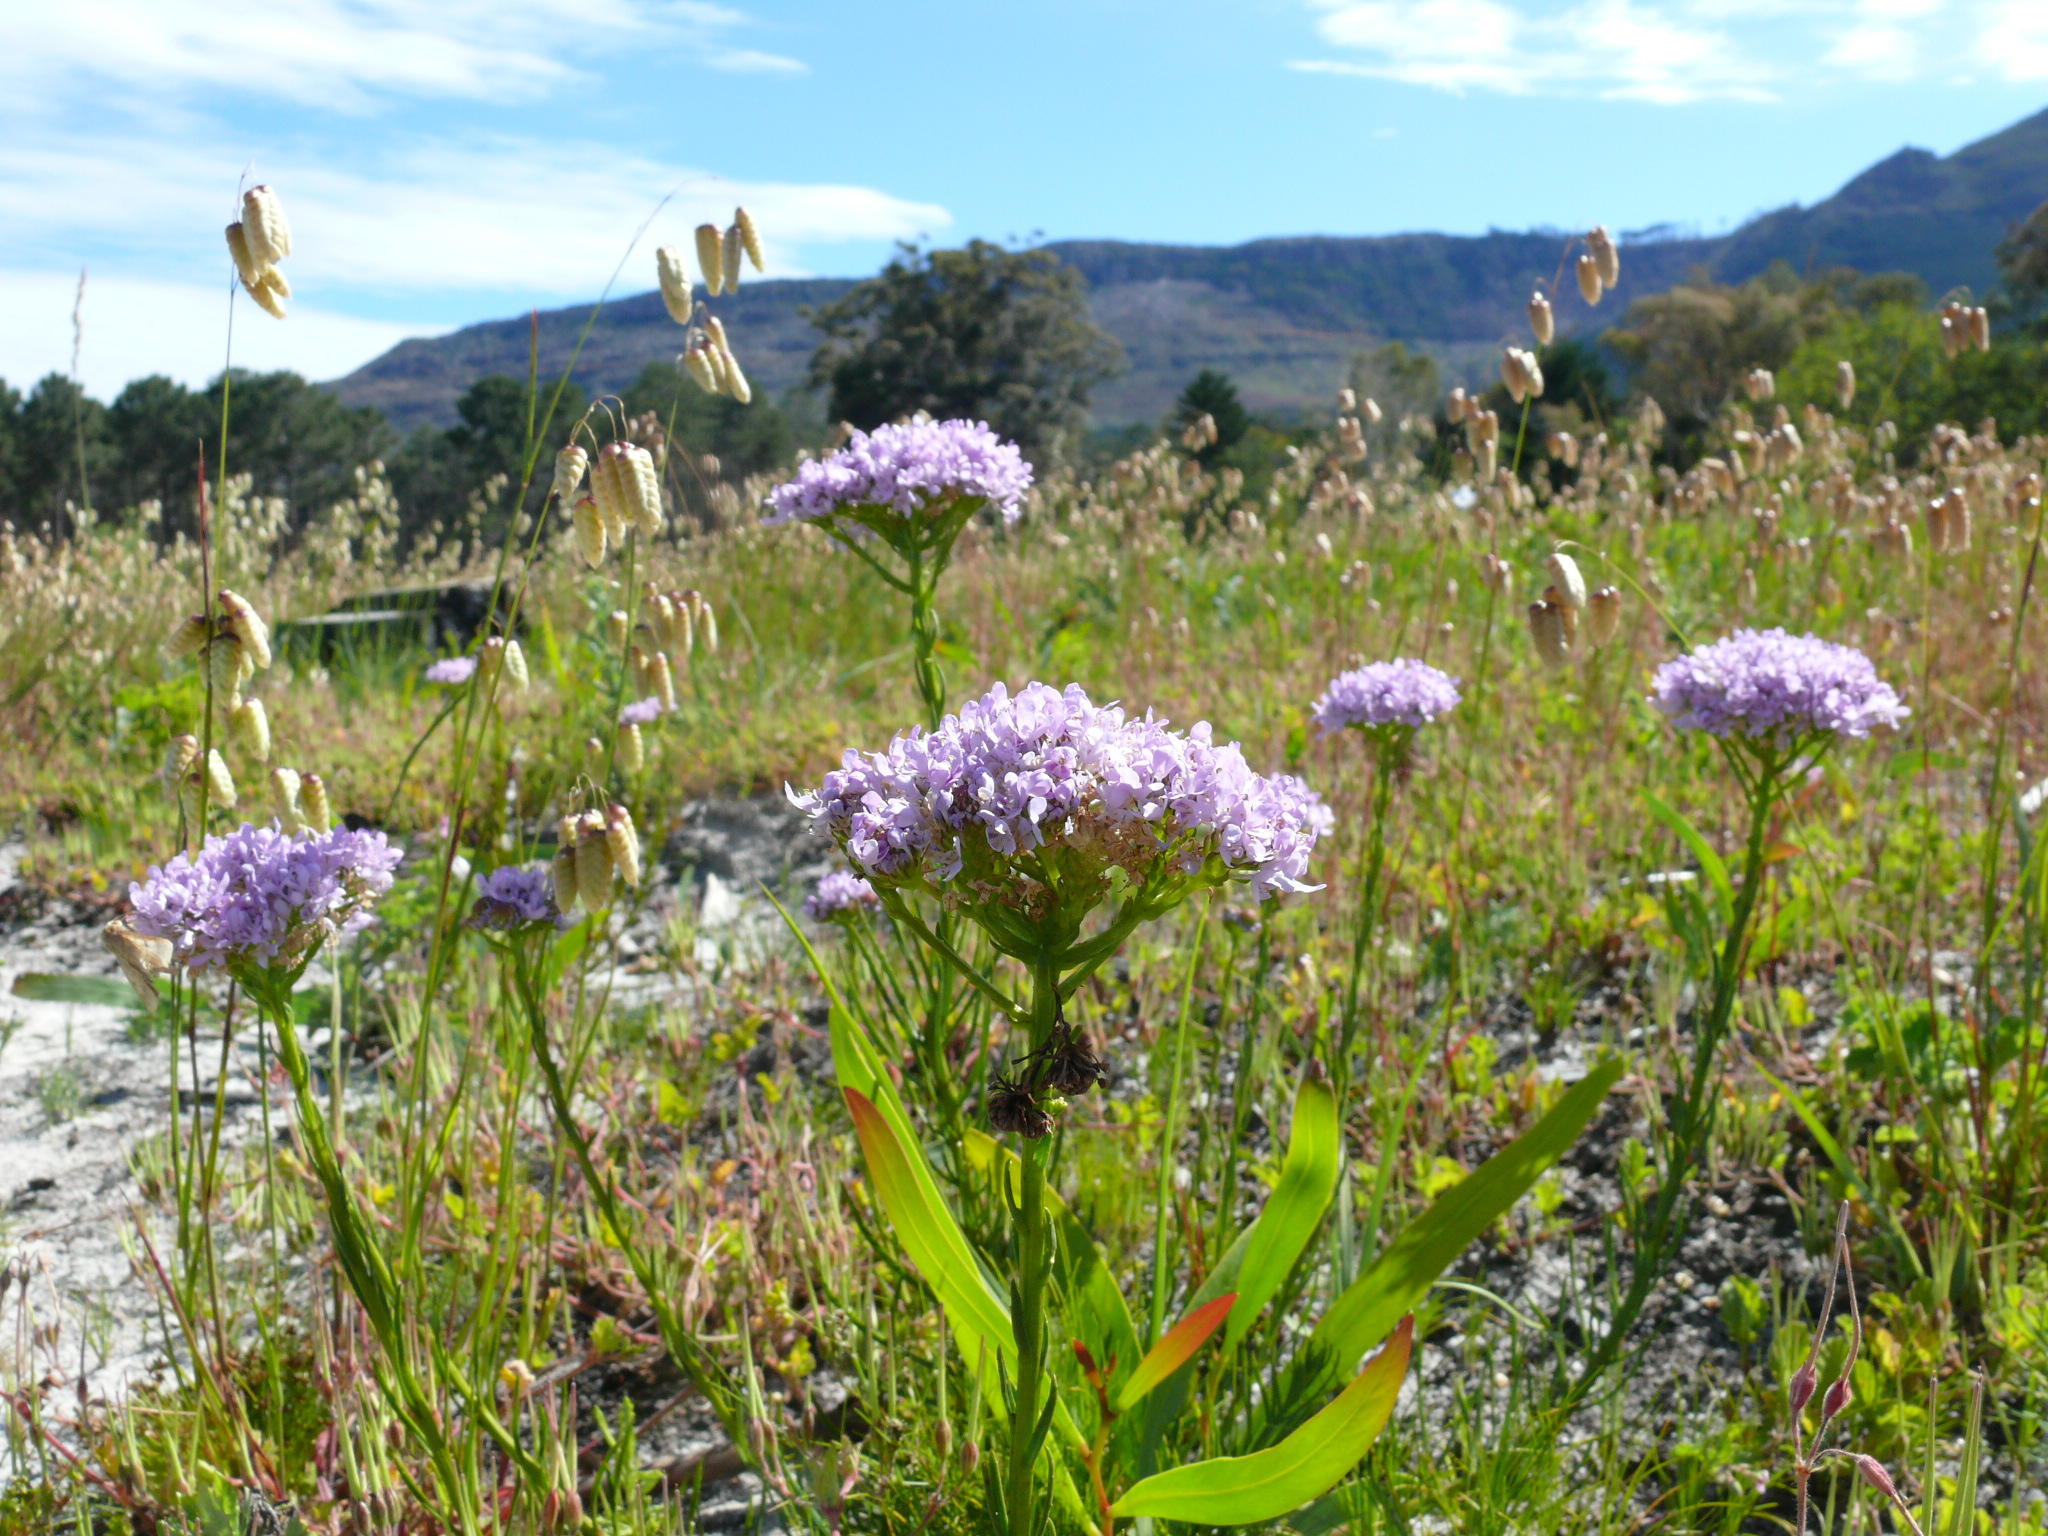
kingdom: Plantae
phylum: Tracheophyta
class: Liliopsida
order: Poales
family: Poaceae
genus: Briza
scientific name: Briza maxima
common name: Big quakinggrass
